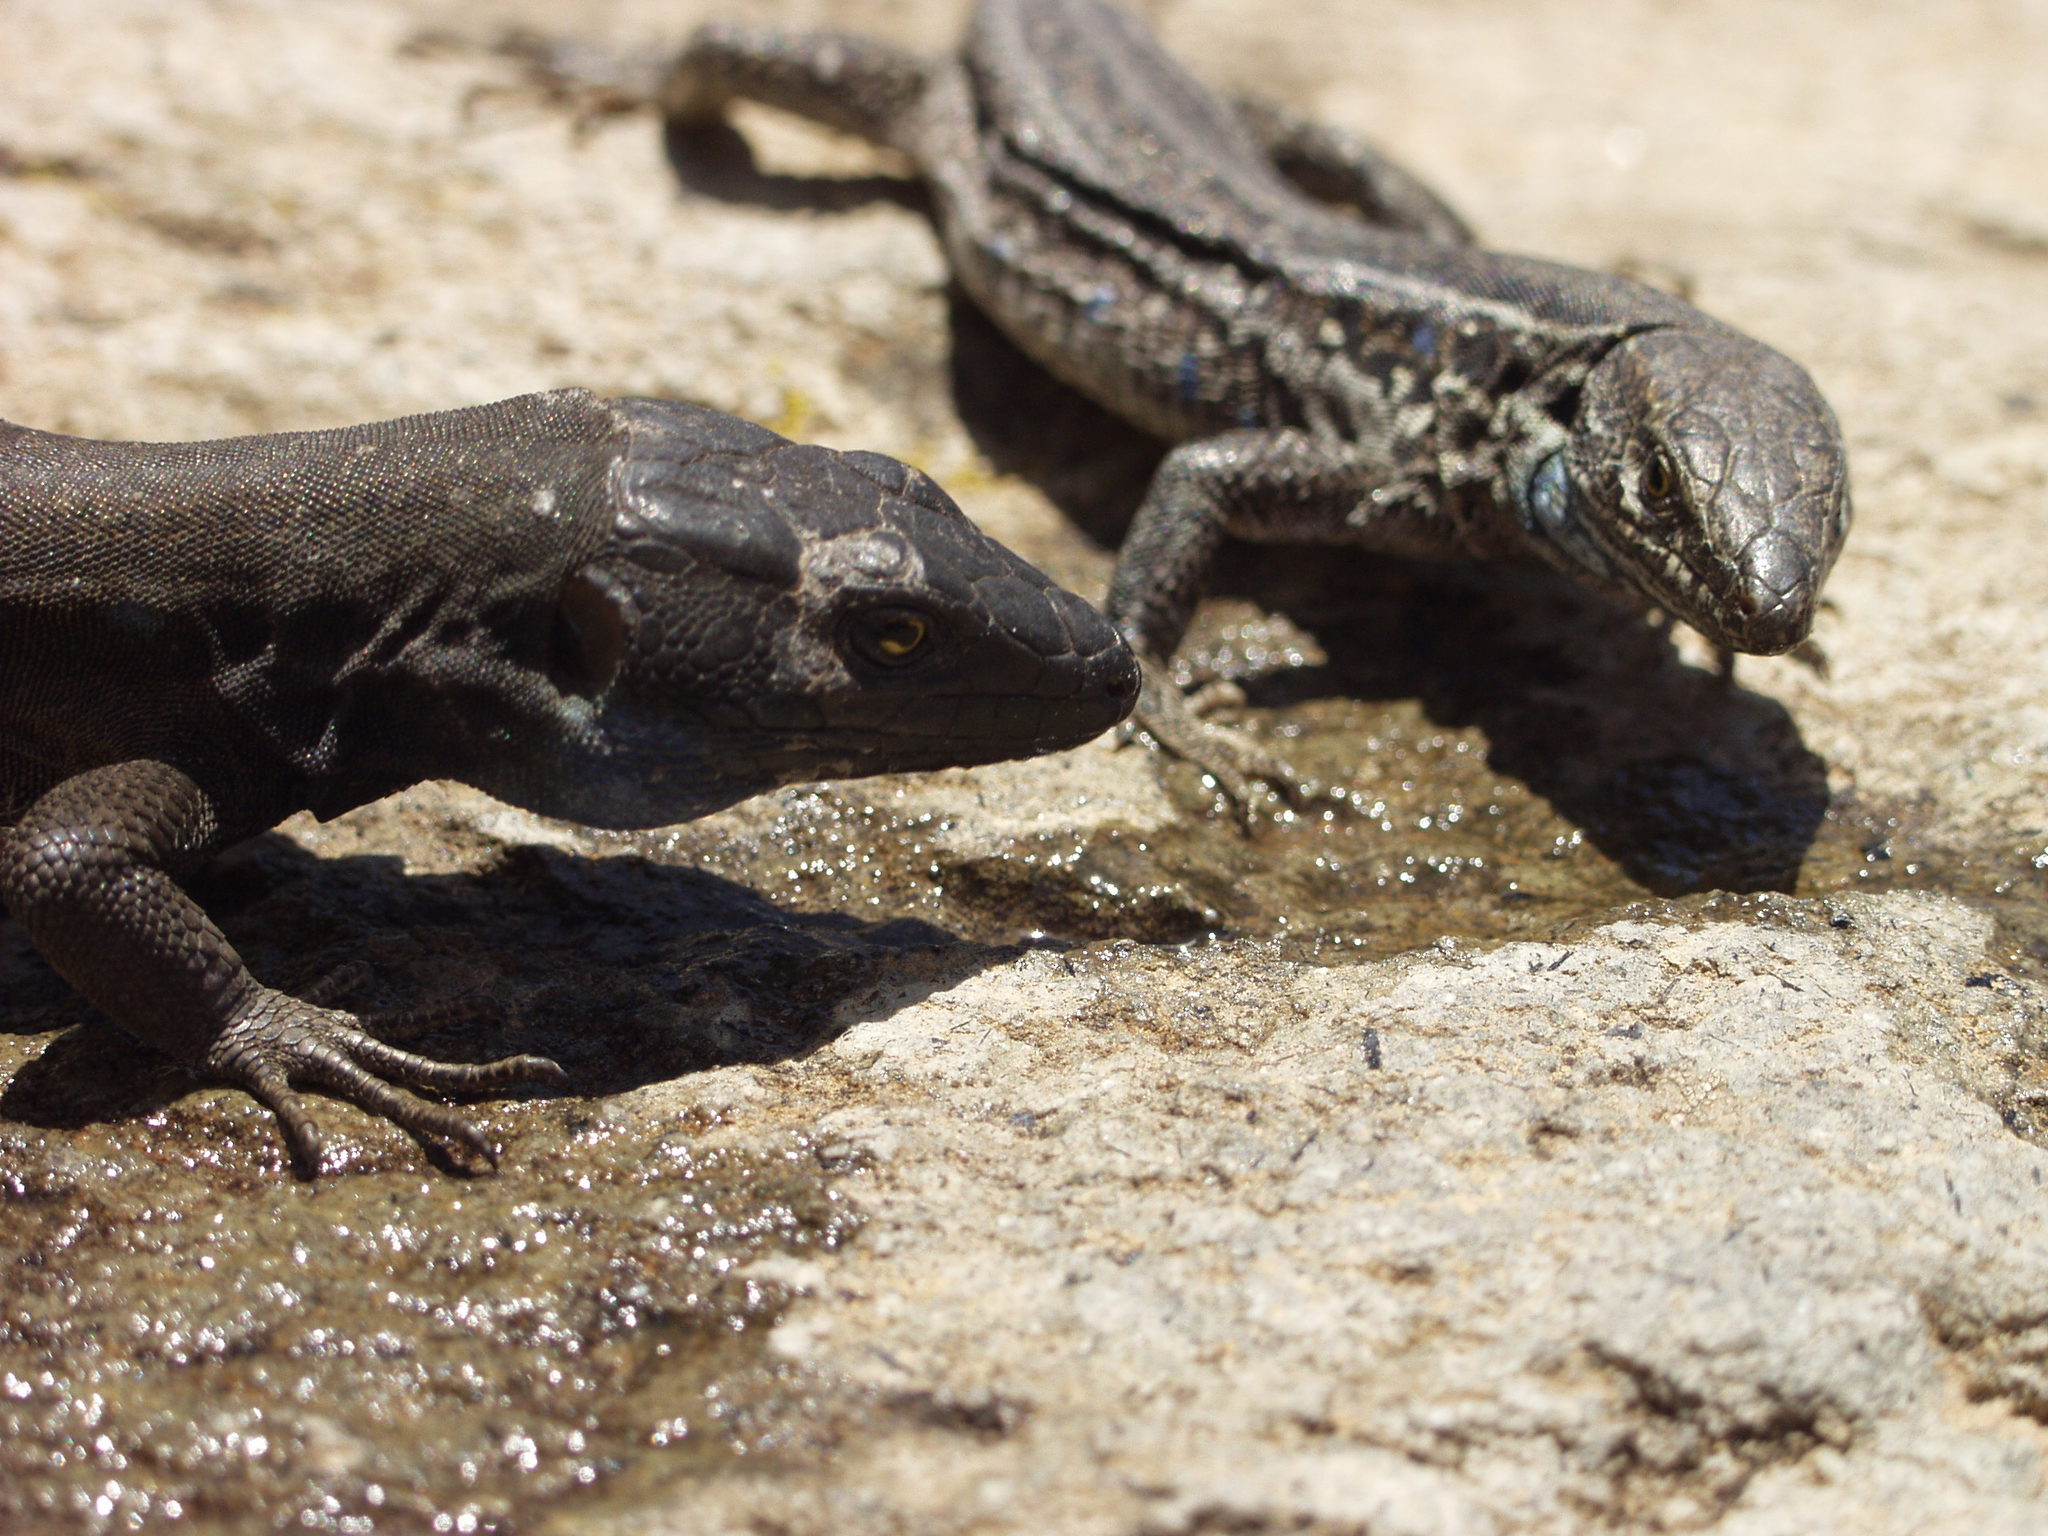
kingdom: Animalia
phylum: Chordata
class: Squamata
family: Lacertidae
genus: Gallotia
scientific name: Gallotia galloti
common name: Gallot's lizard
